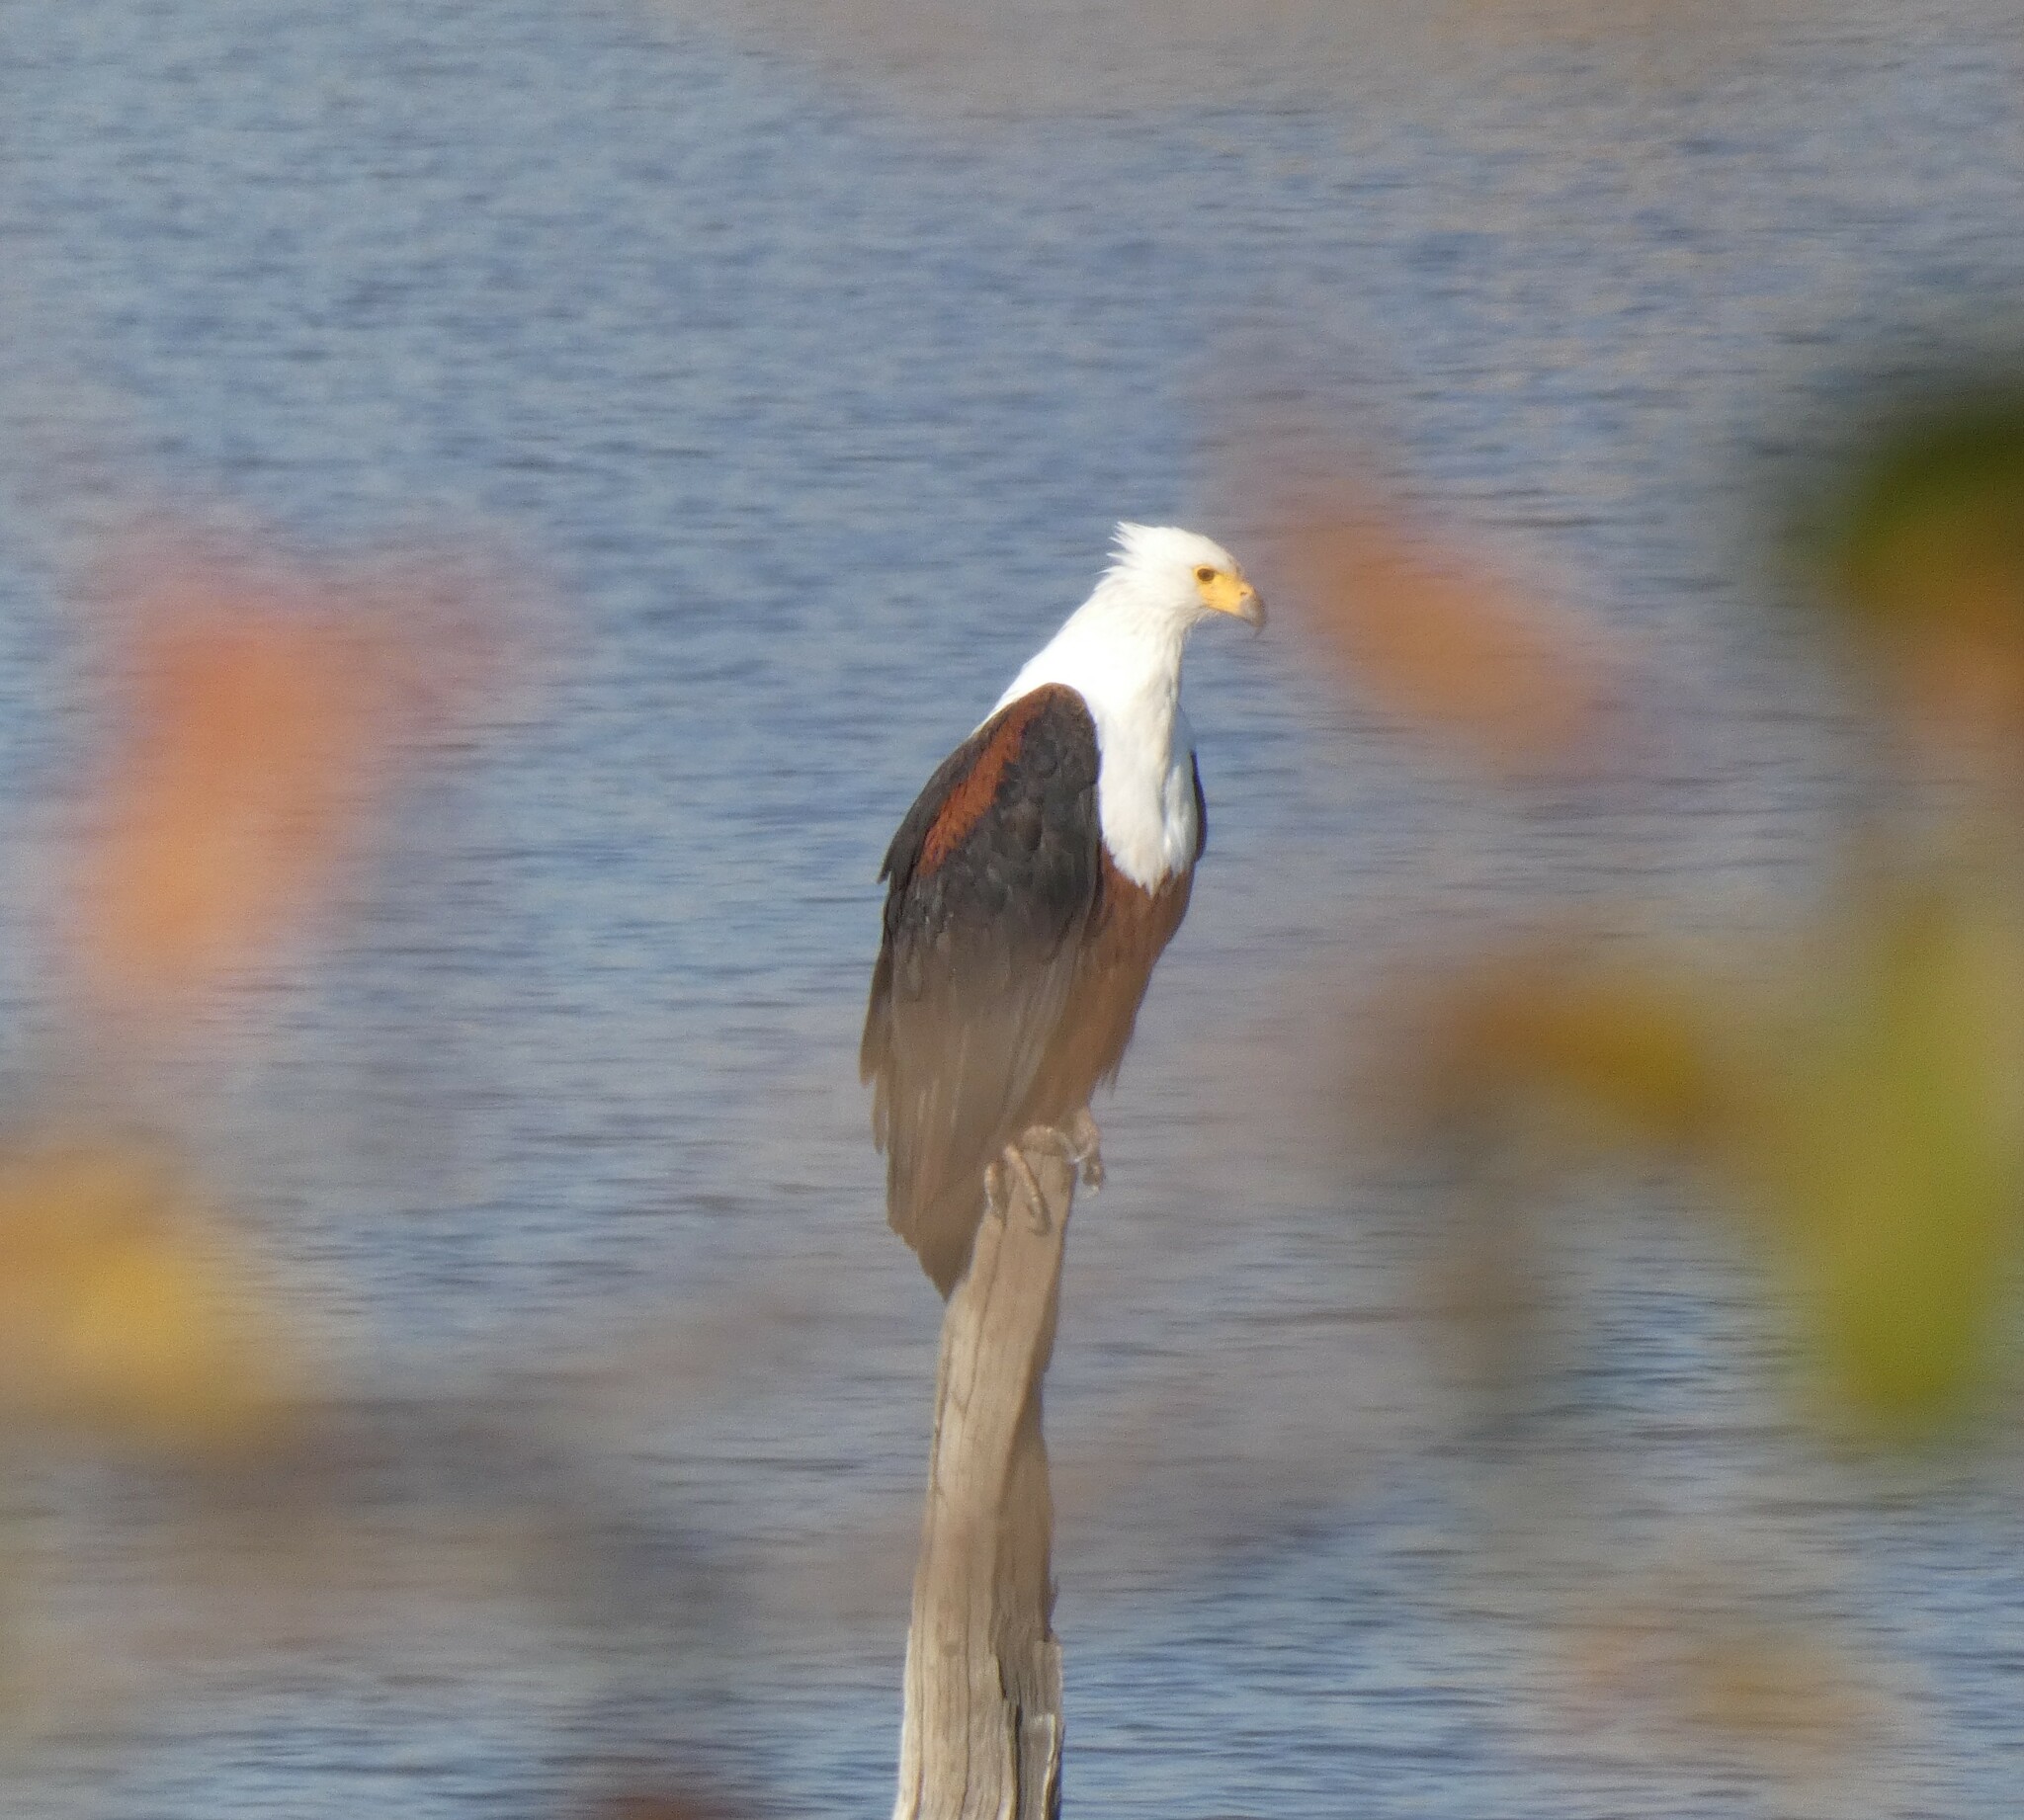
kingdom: Animalia
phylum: Chordata
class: Aves
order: Accipitriformes
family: Accipitridae
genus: Haliaeetus
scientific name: Haliaeetus vocifer
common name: African fish eagle
